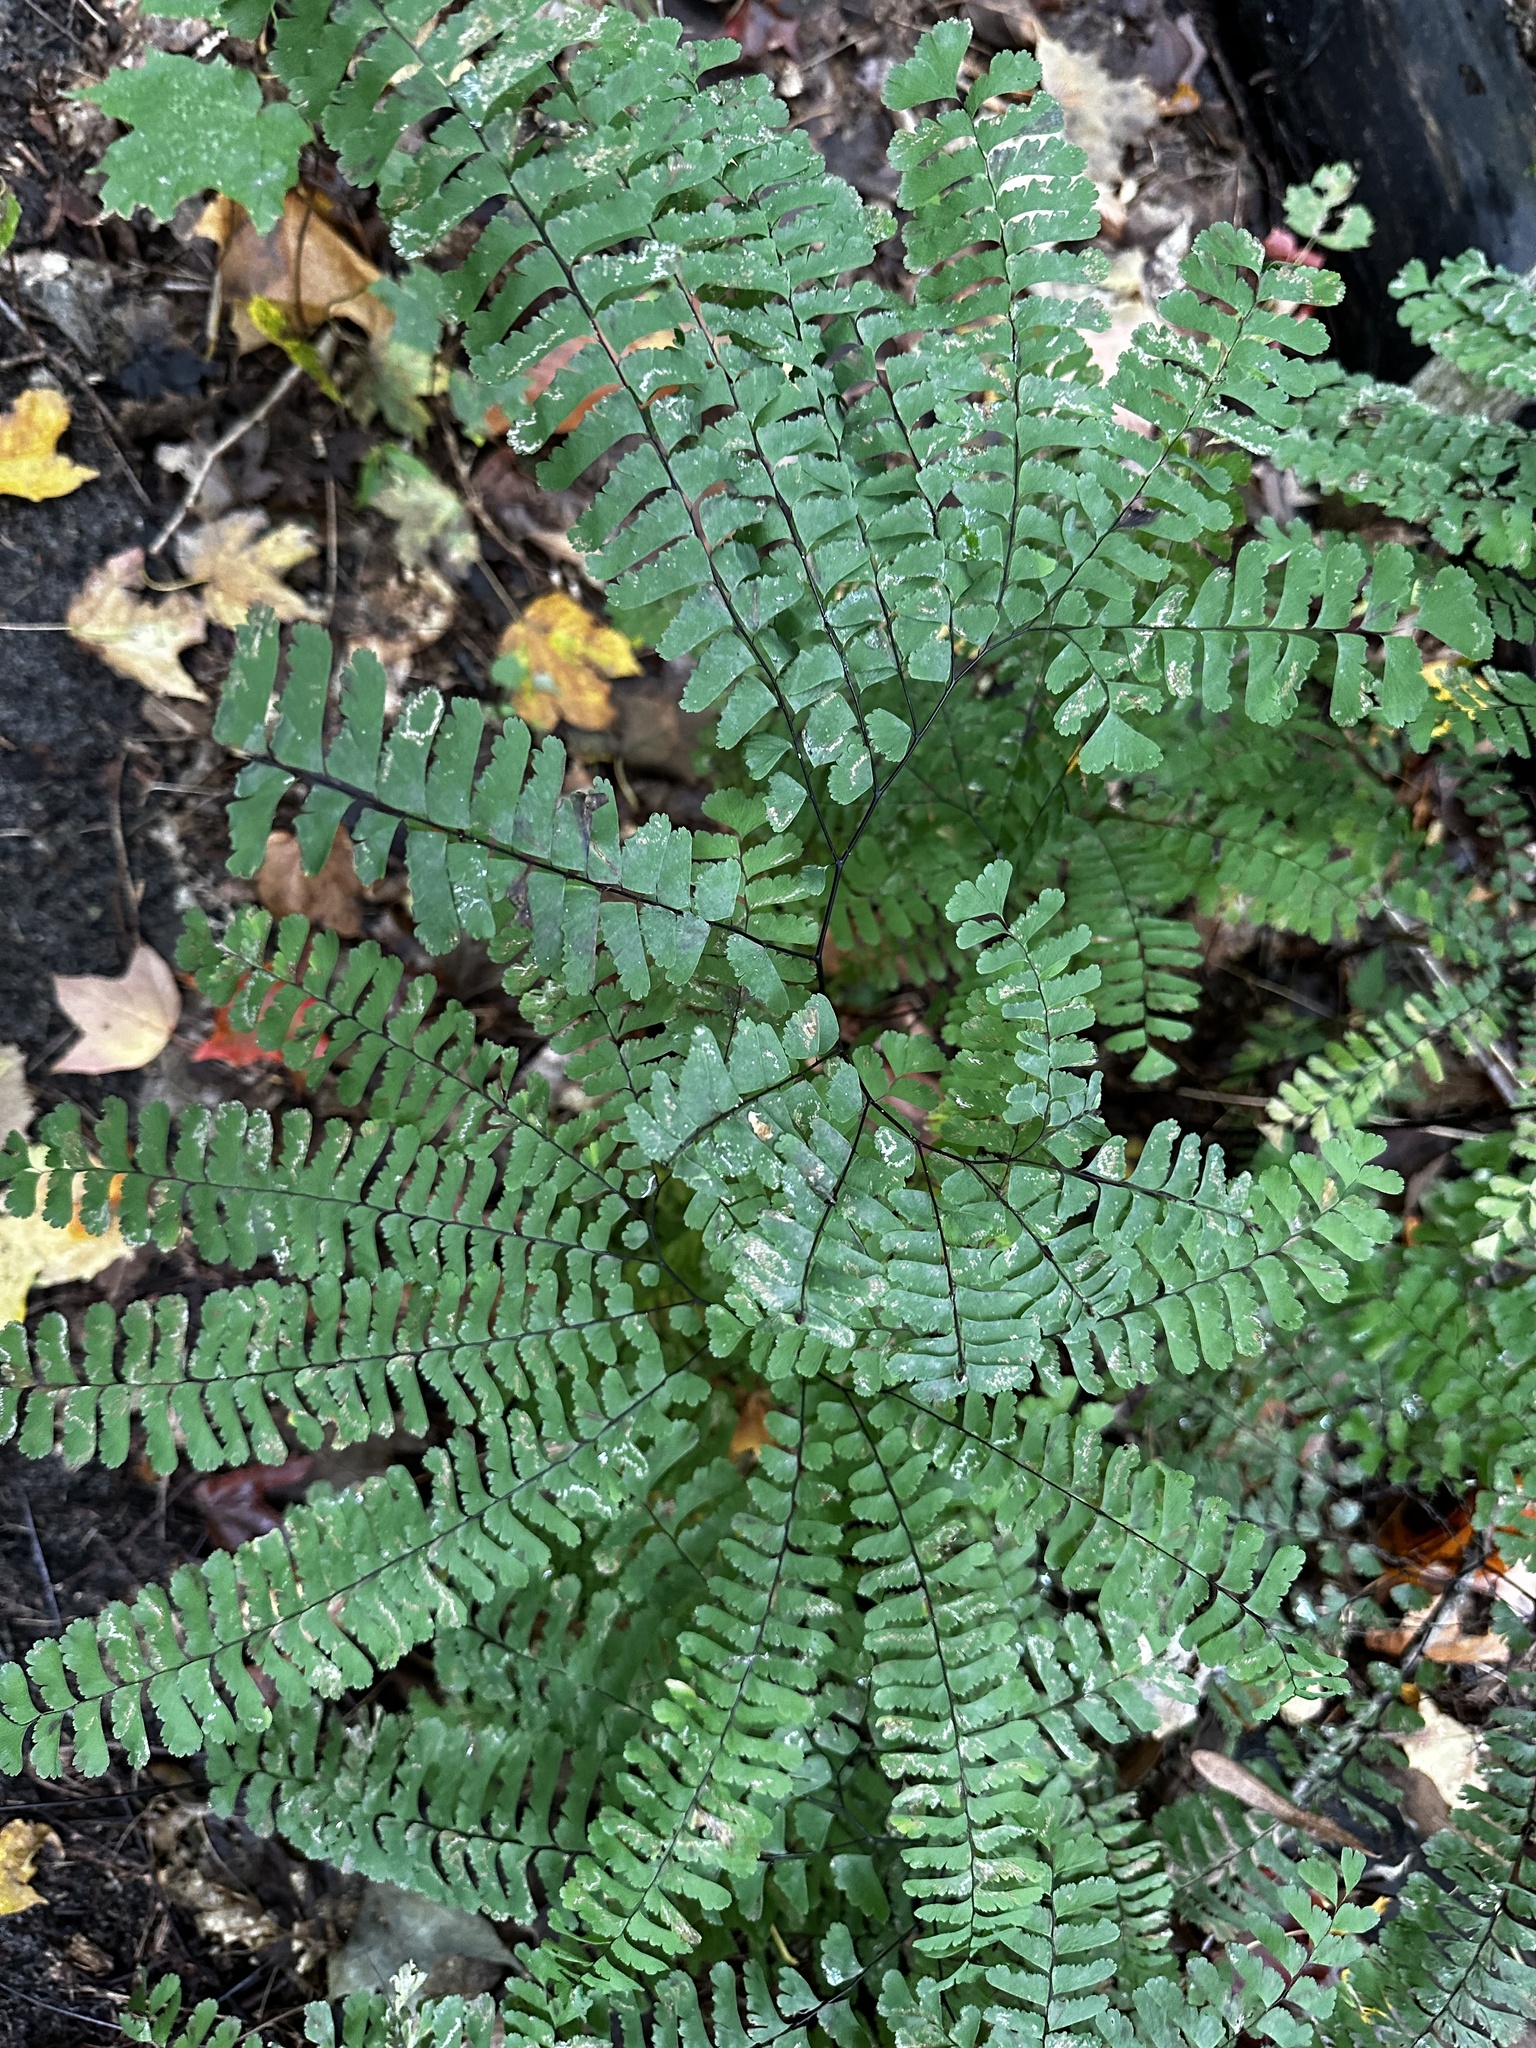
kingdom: Plantae
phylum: Tracheophyta
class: Polypodiopsida
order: Polypodiales
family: Pteridaceae
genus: Adiantum
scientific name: Adiantum pedatum
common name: Five-finger fern
